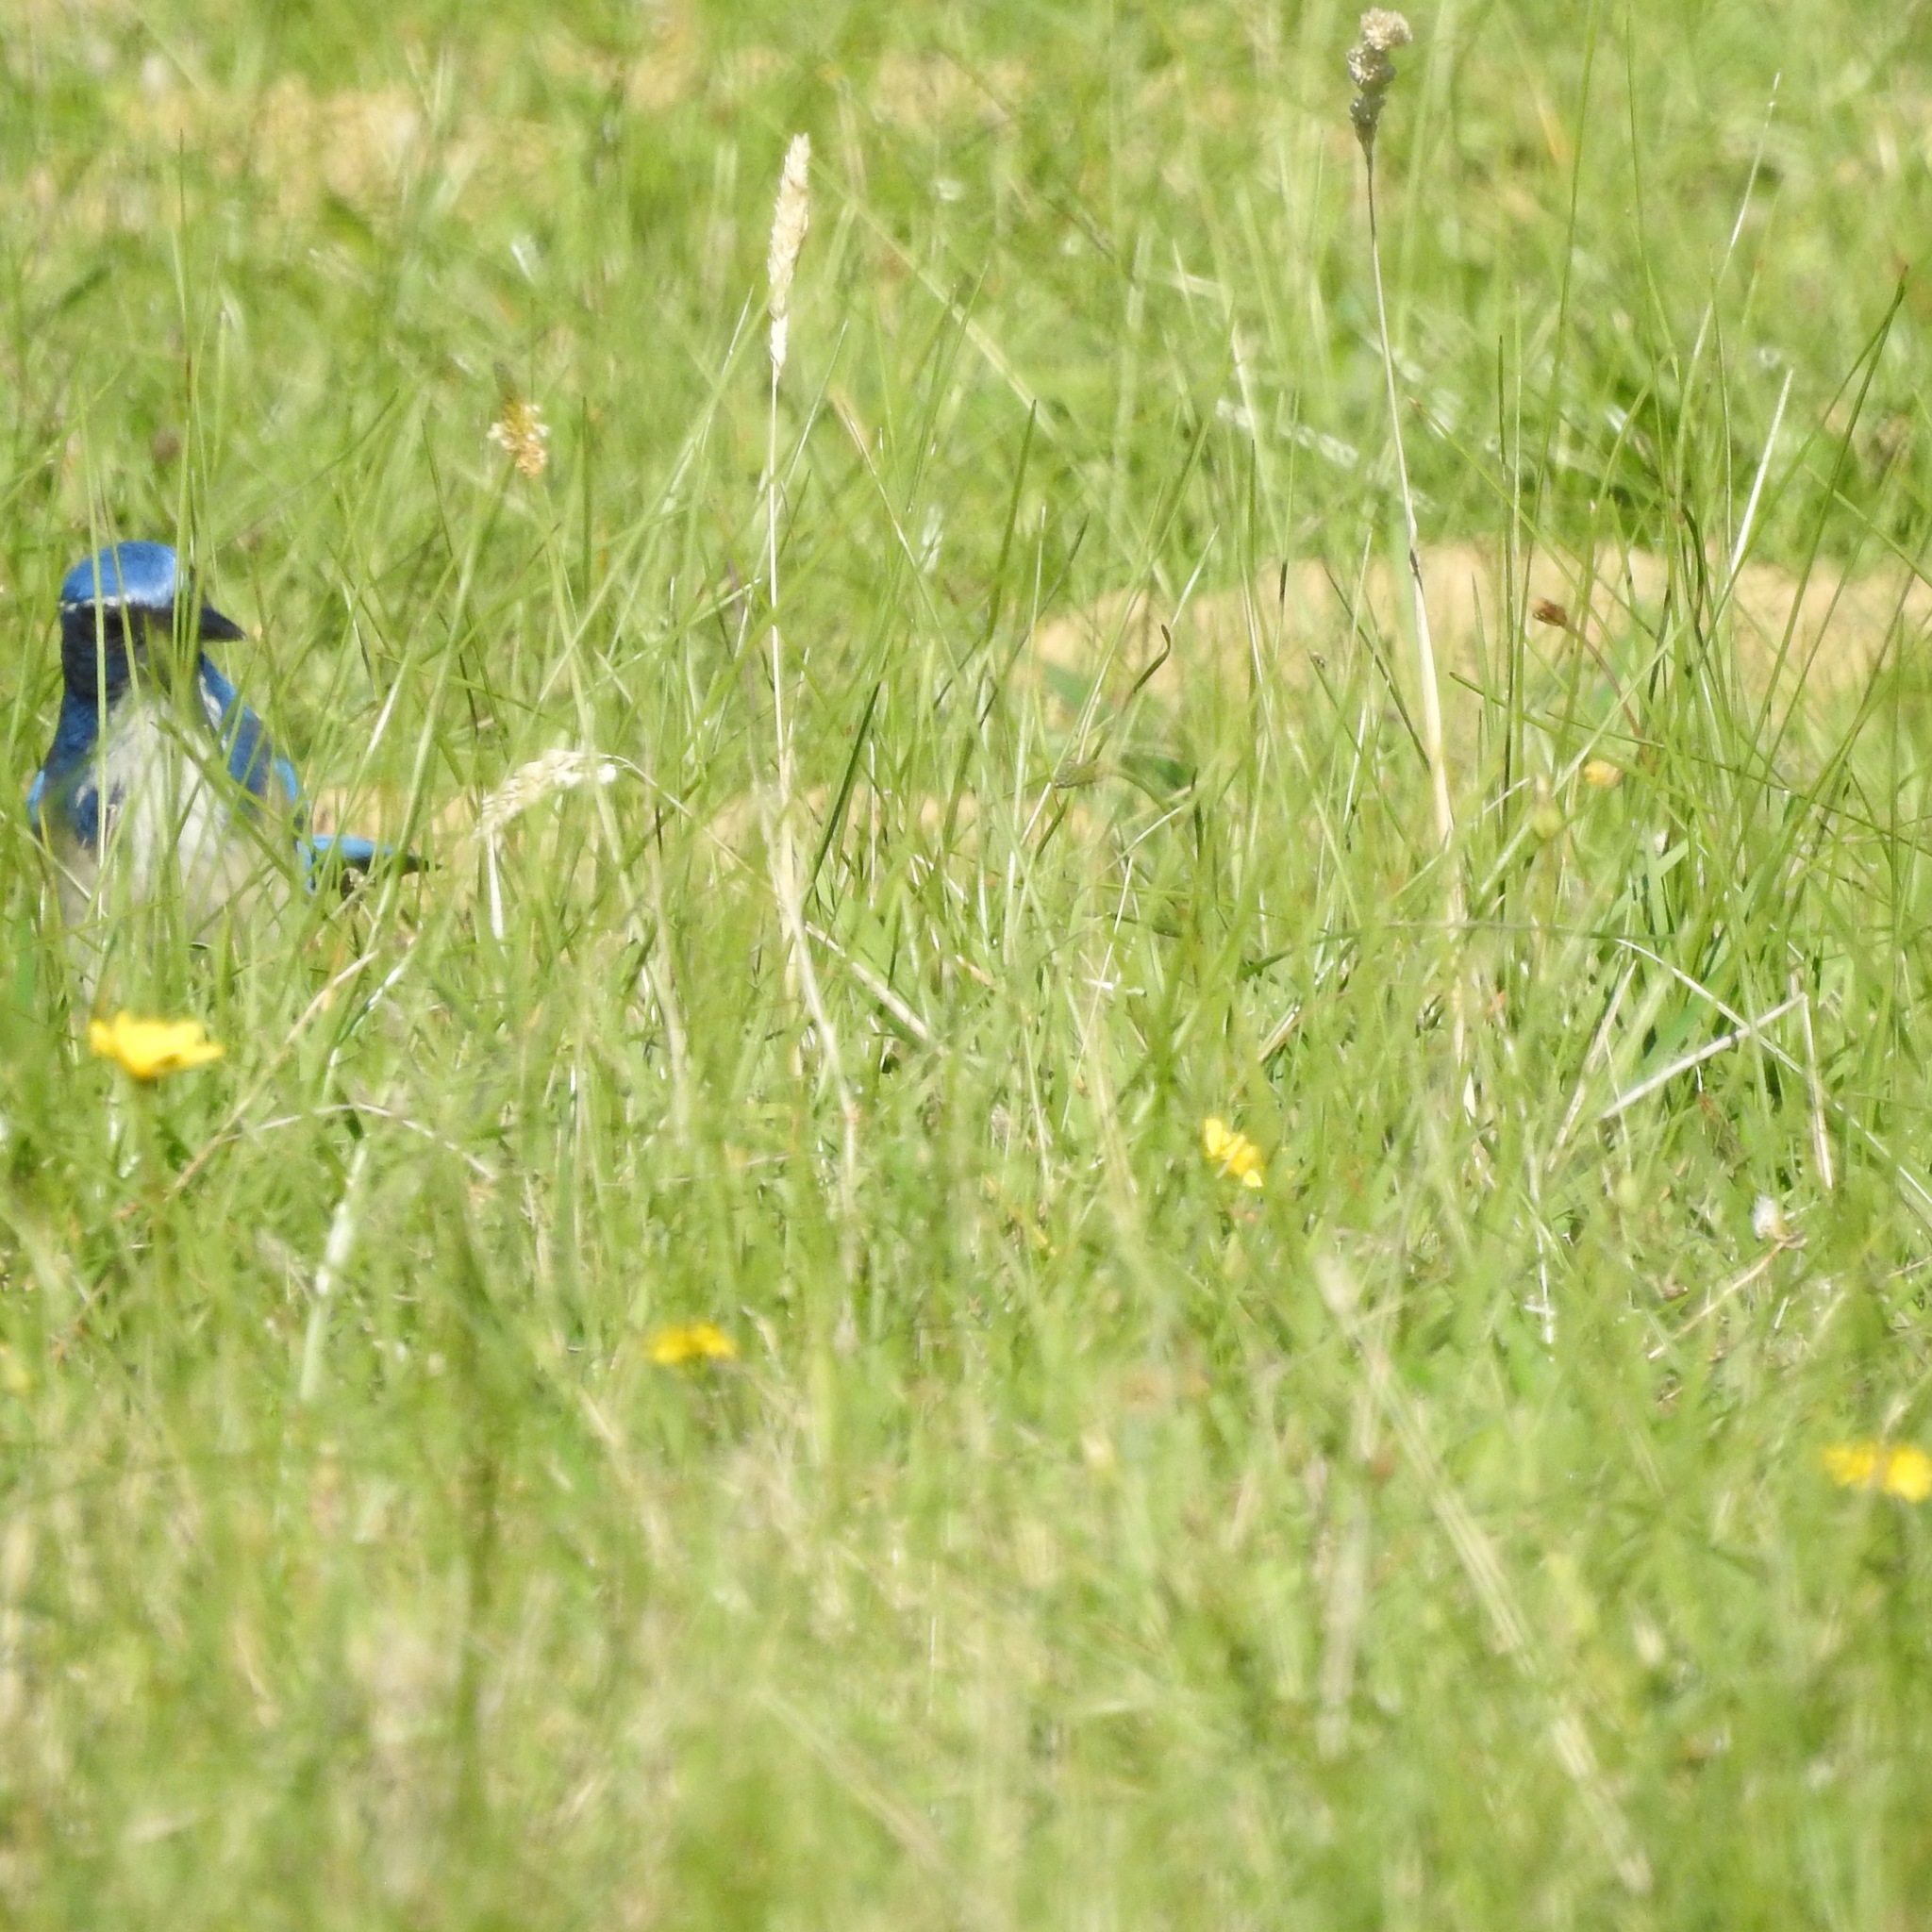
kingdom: Animalia
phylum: Chordata
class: Aves
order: Passeriformes
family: Corvidae
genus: Aphelocoma
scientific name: Aphelocoma californica
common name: California scrub-jay
